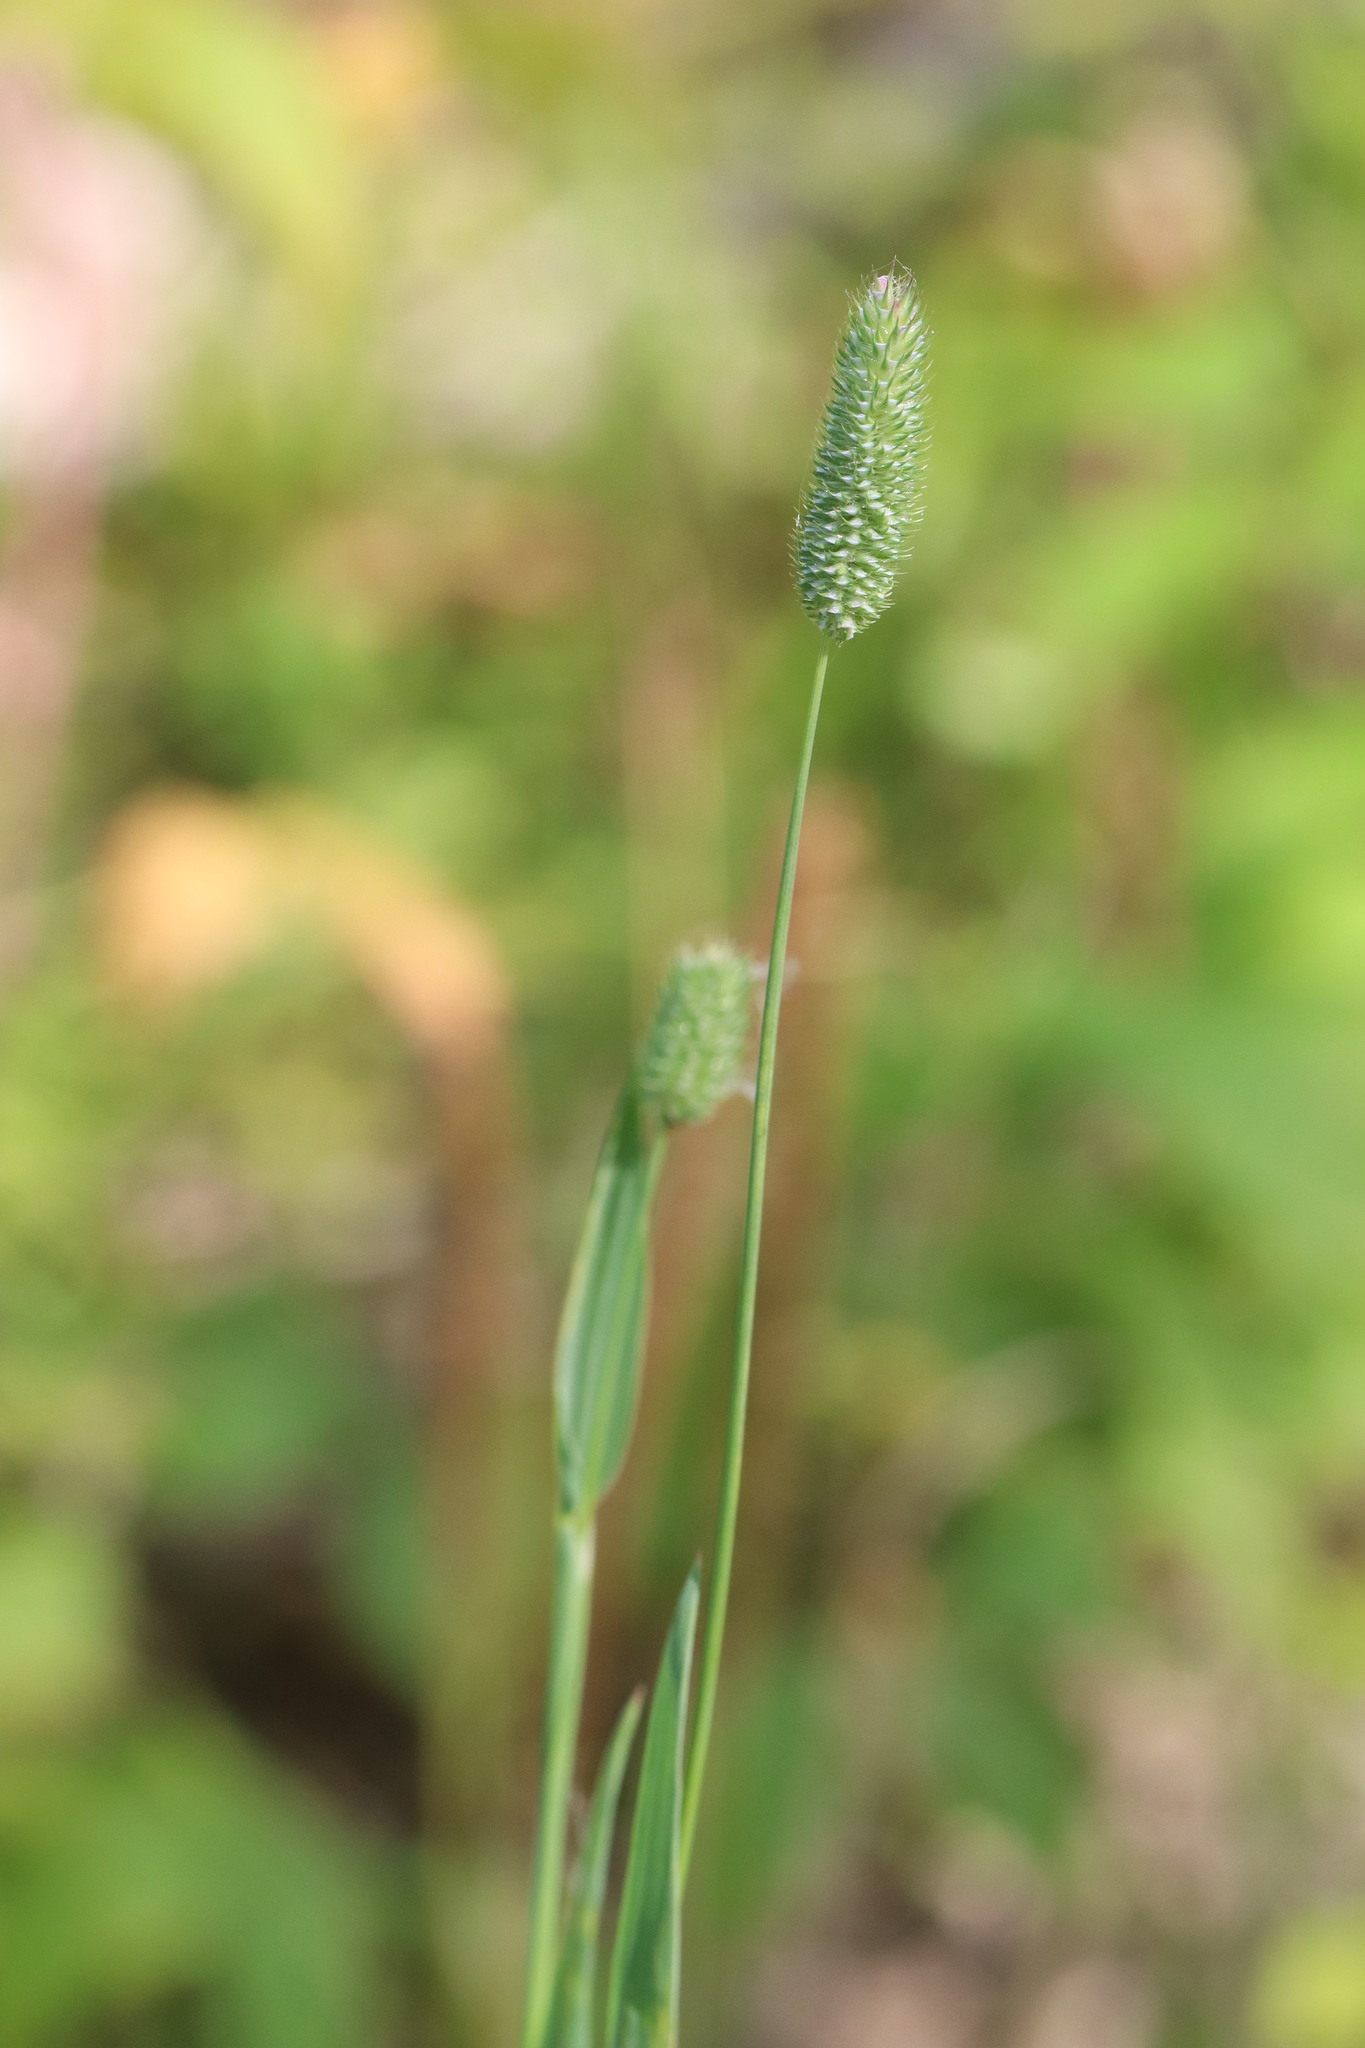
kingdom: Plantae
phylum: Tracheophyta
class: Liliopsida
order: Poales
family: Poaceae
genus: Phleum
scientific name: Phleum pratense
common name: Timothy grass
